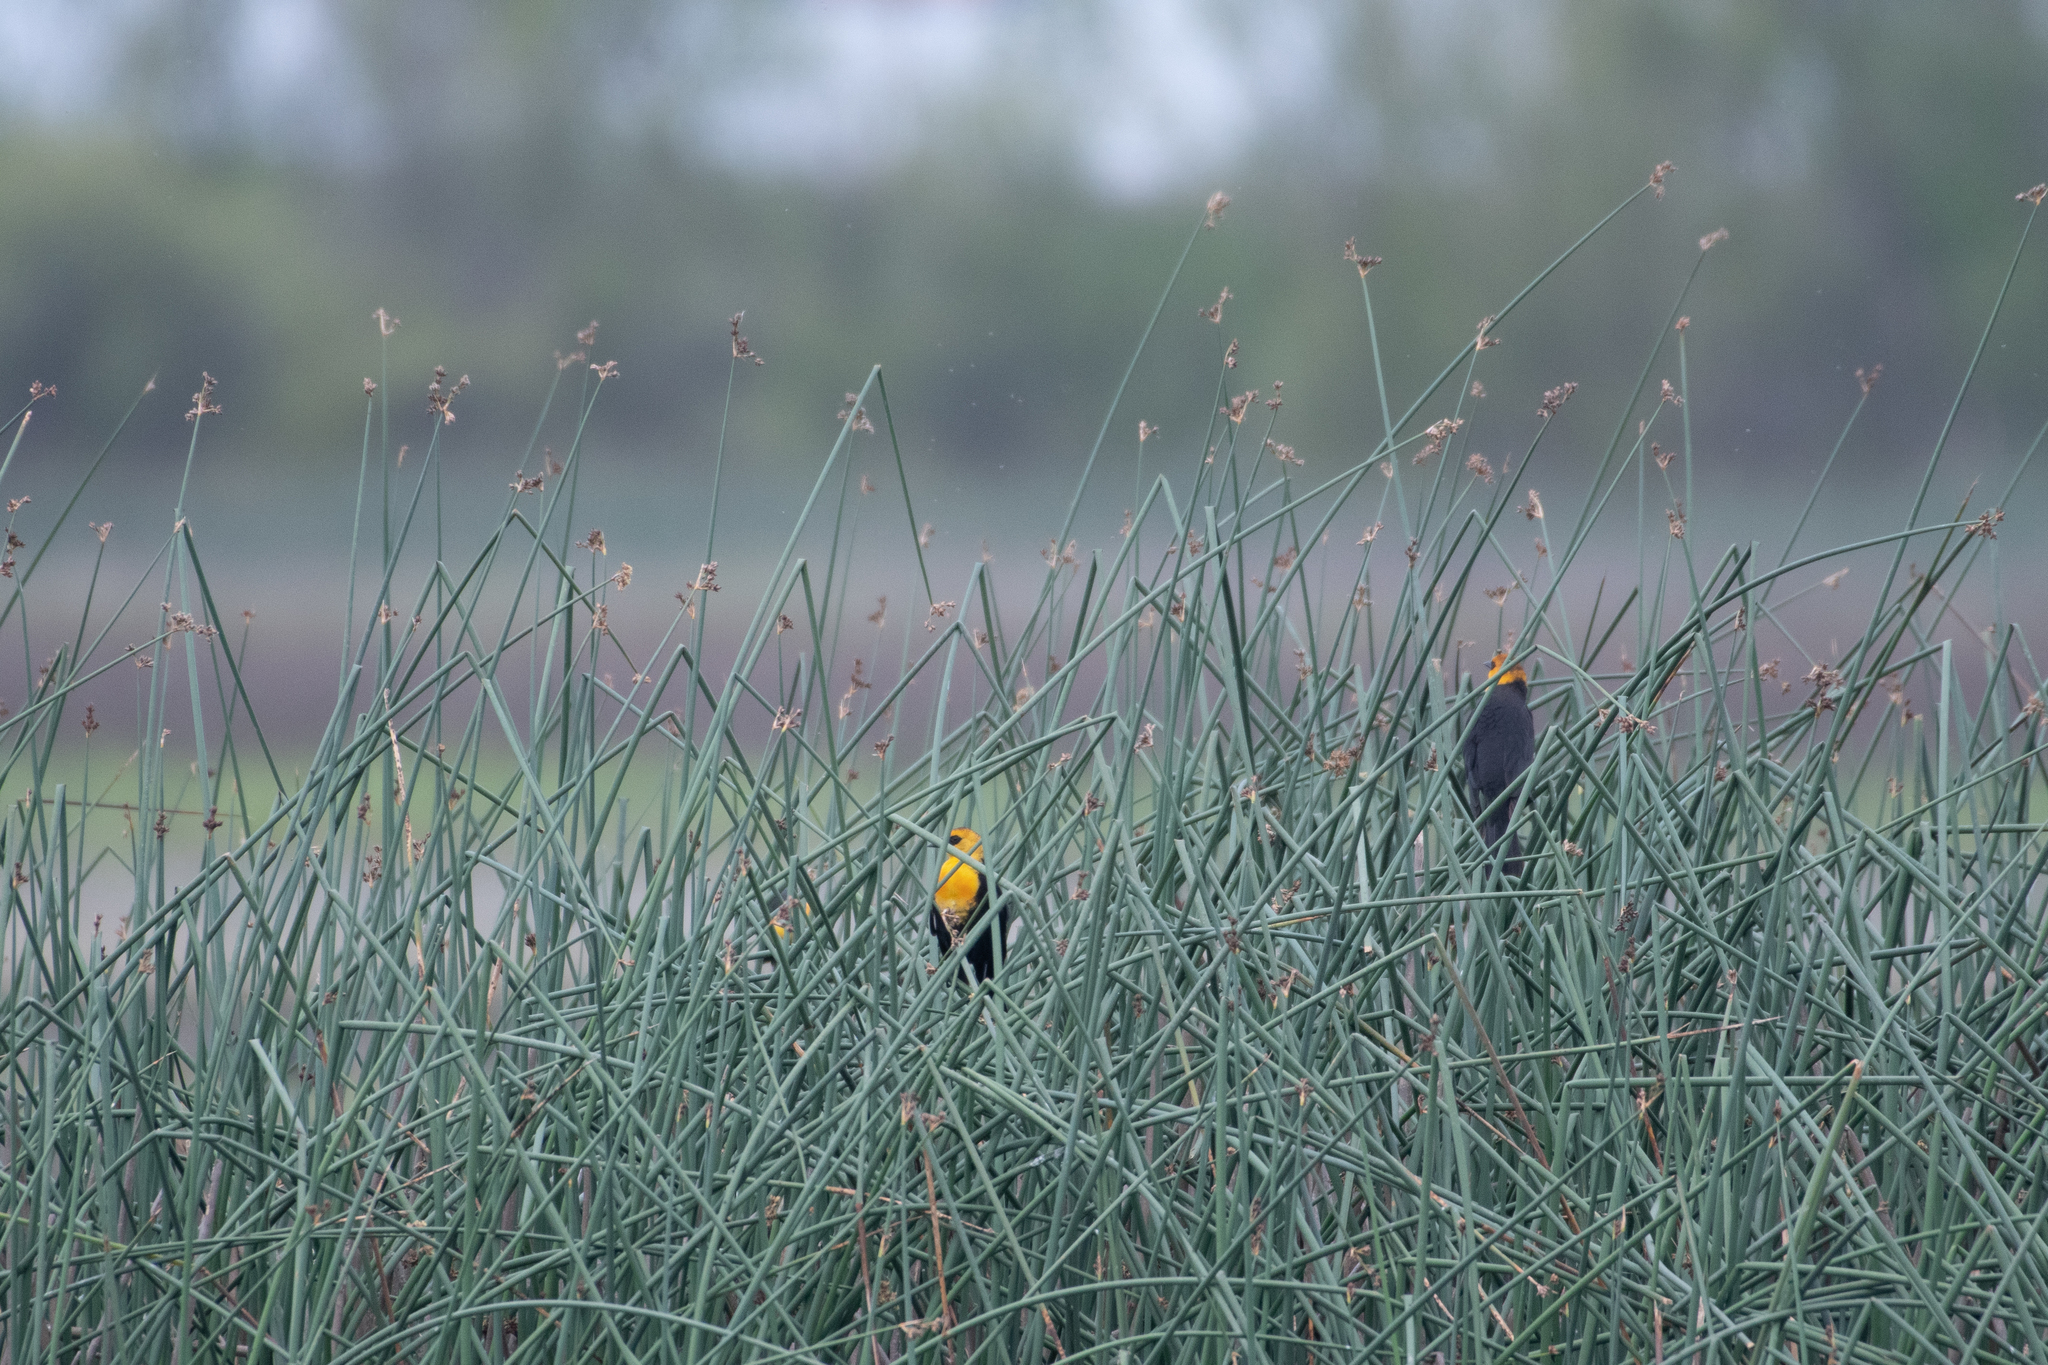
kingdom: Animalia
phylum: Chordata
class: Aves
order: Passeriformes
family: Icteridae
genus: Xanthocephalus
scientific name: Xanthocephalus xanthocephalus
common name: Yellow-headed blackbird
